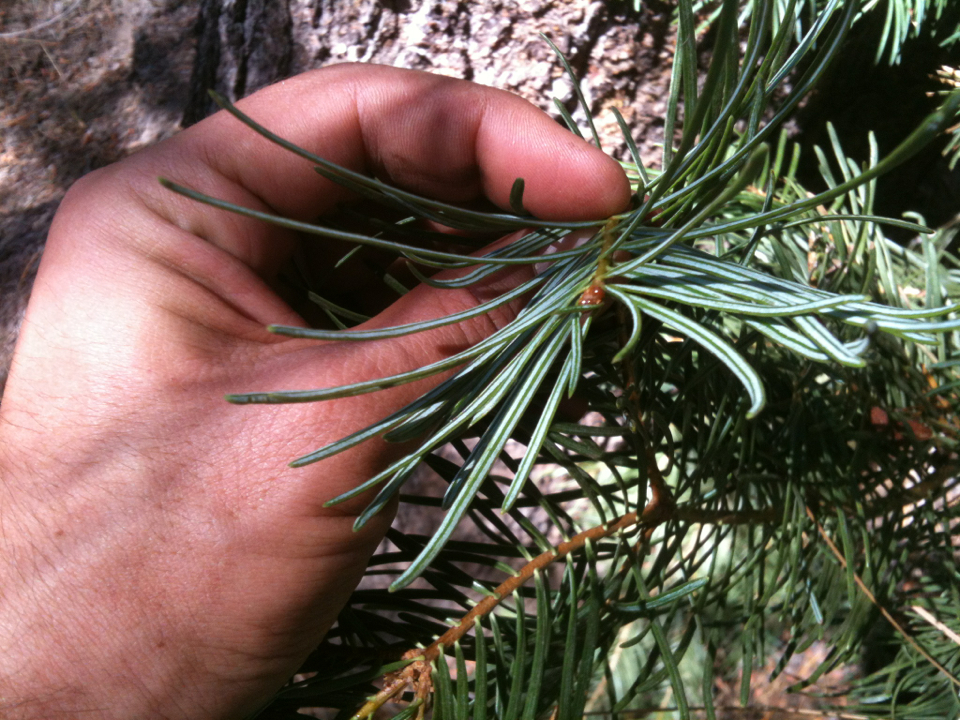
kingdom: Plantae
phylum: Tracheophyta
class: Pinopsida
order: Pinales
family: Pinaceae
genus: Abies
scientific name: Abies concolor
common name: Colorado fir
